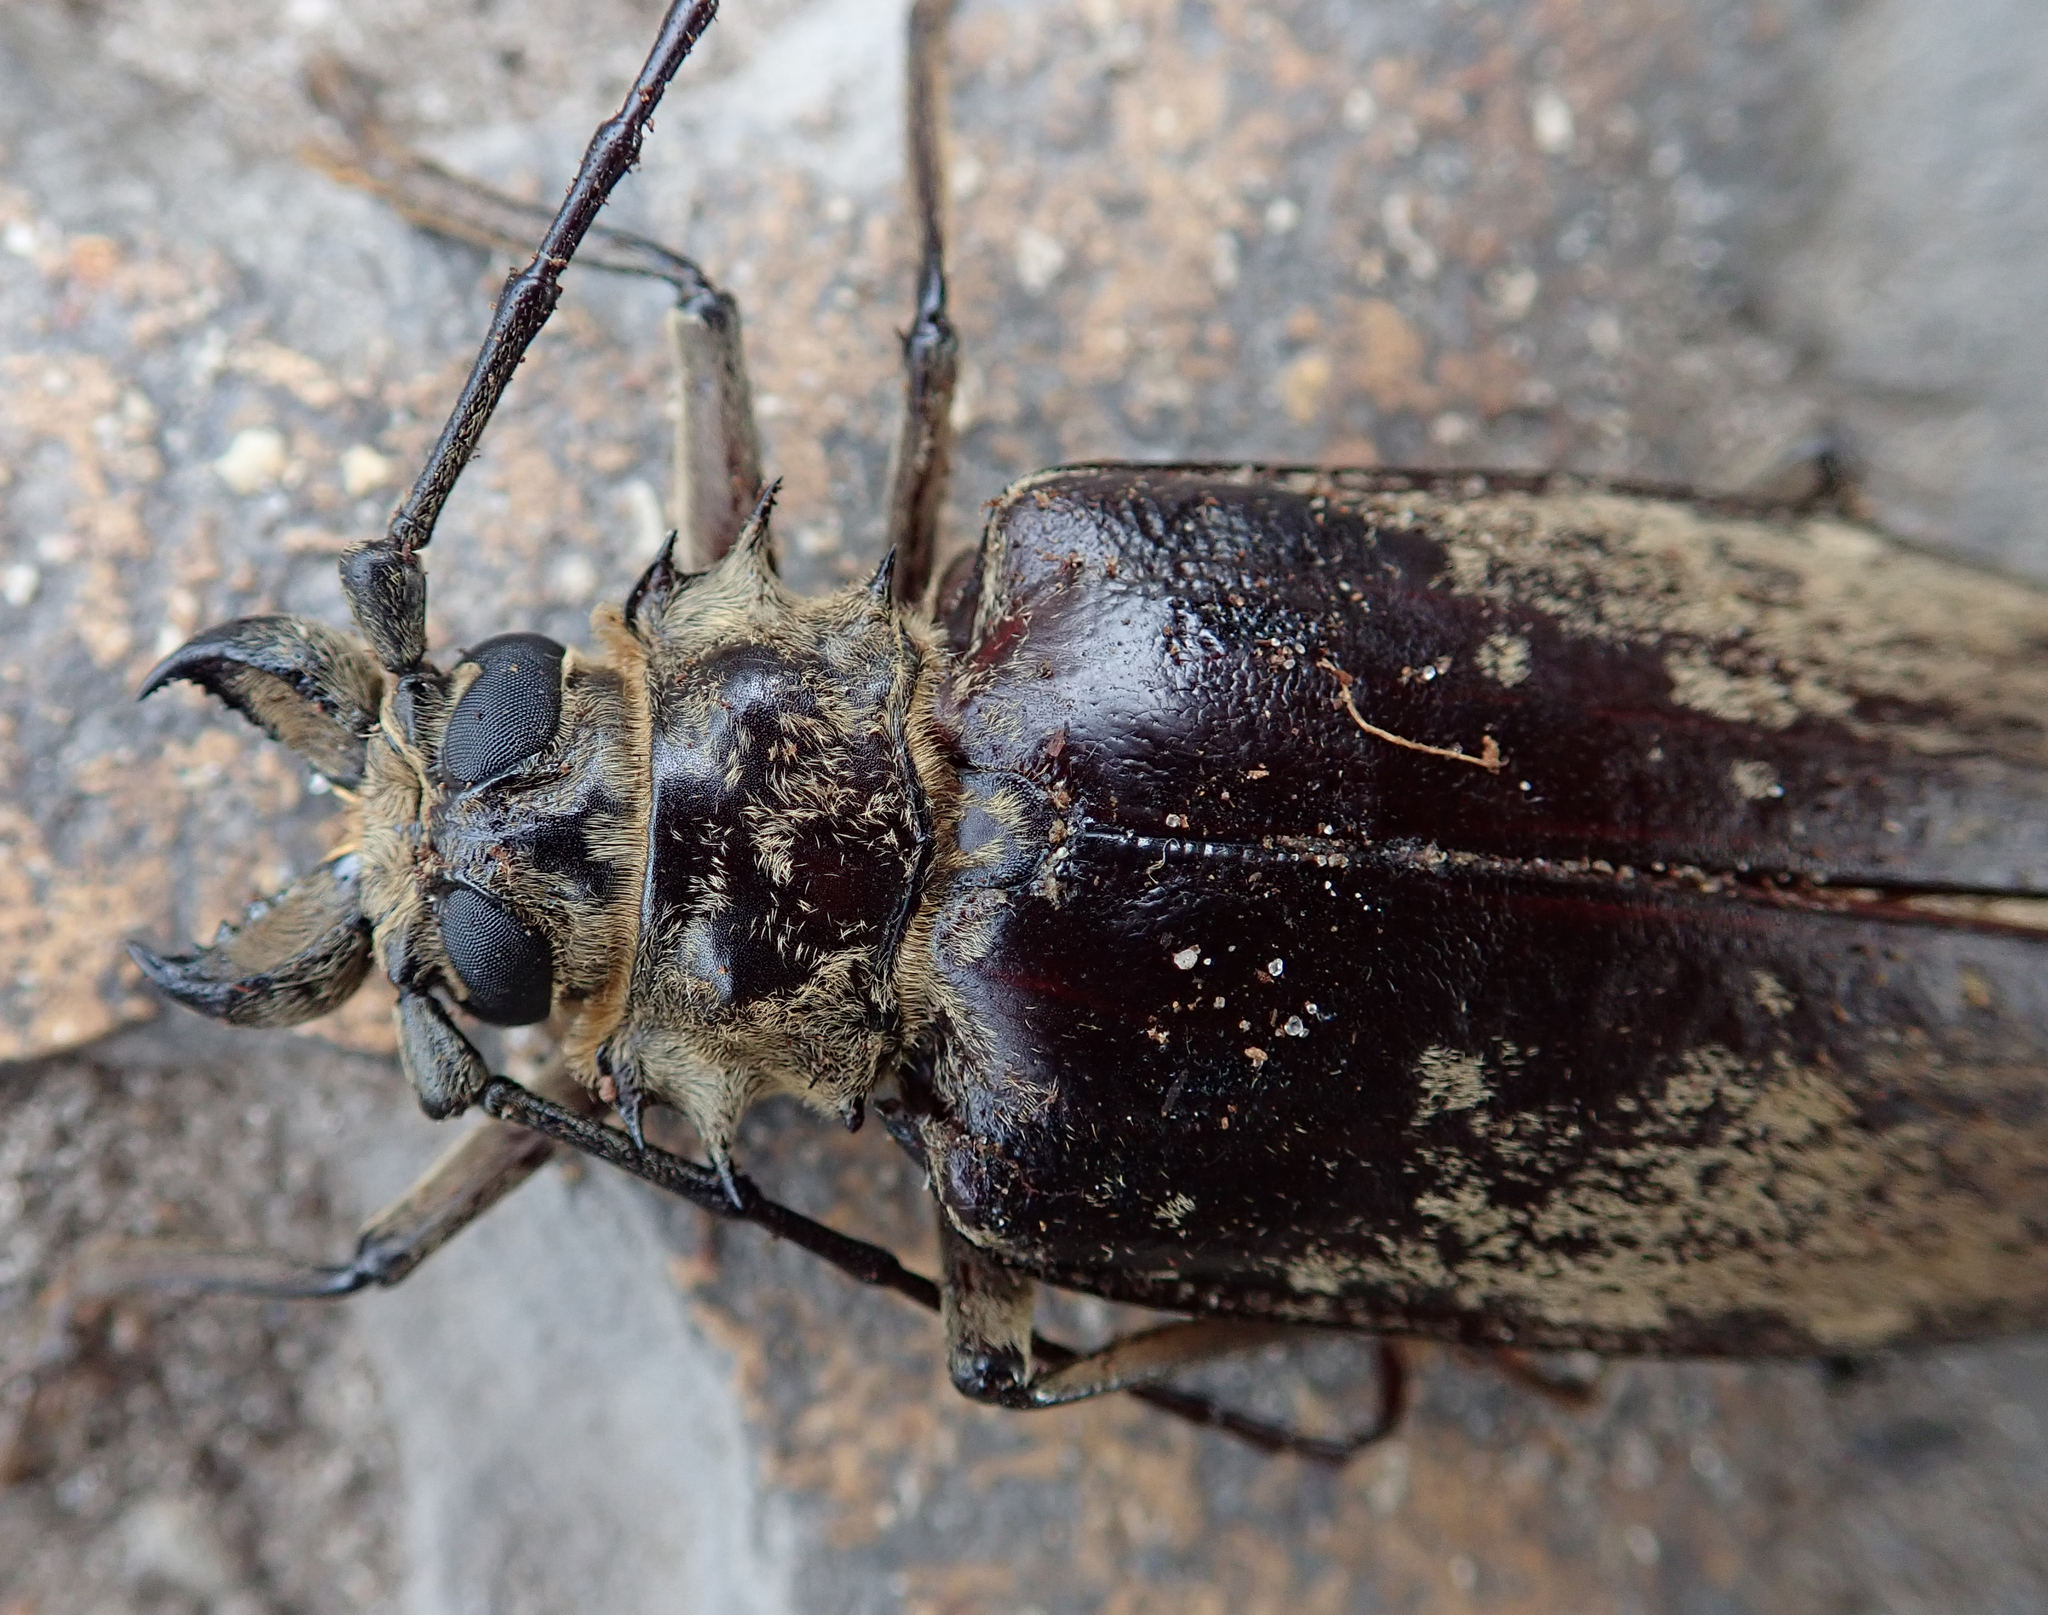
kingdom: Animalia
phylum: Arthropoda
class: Insecta
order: Coleoptera
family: Cerambycidae
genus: Tithoes
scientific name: Tithoes confinis
